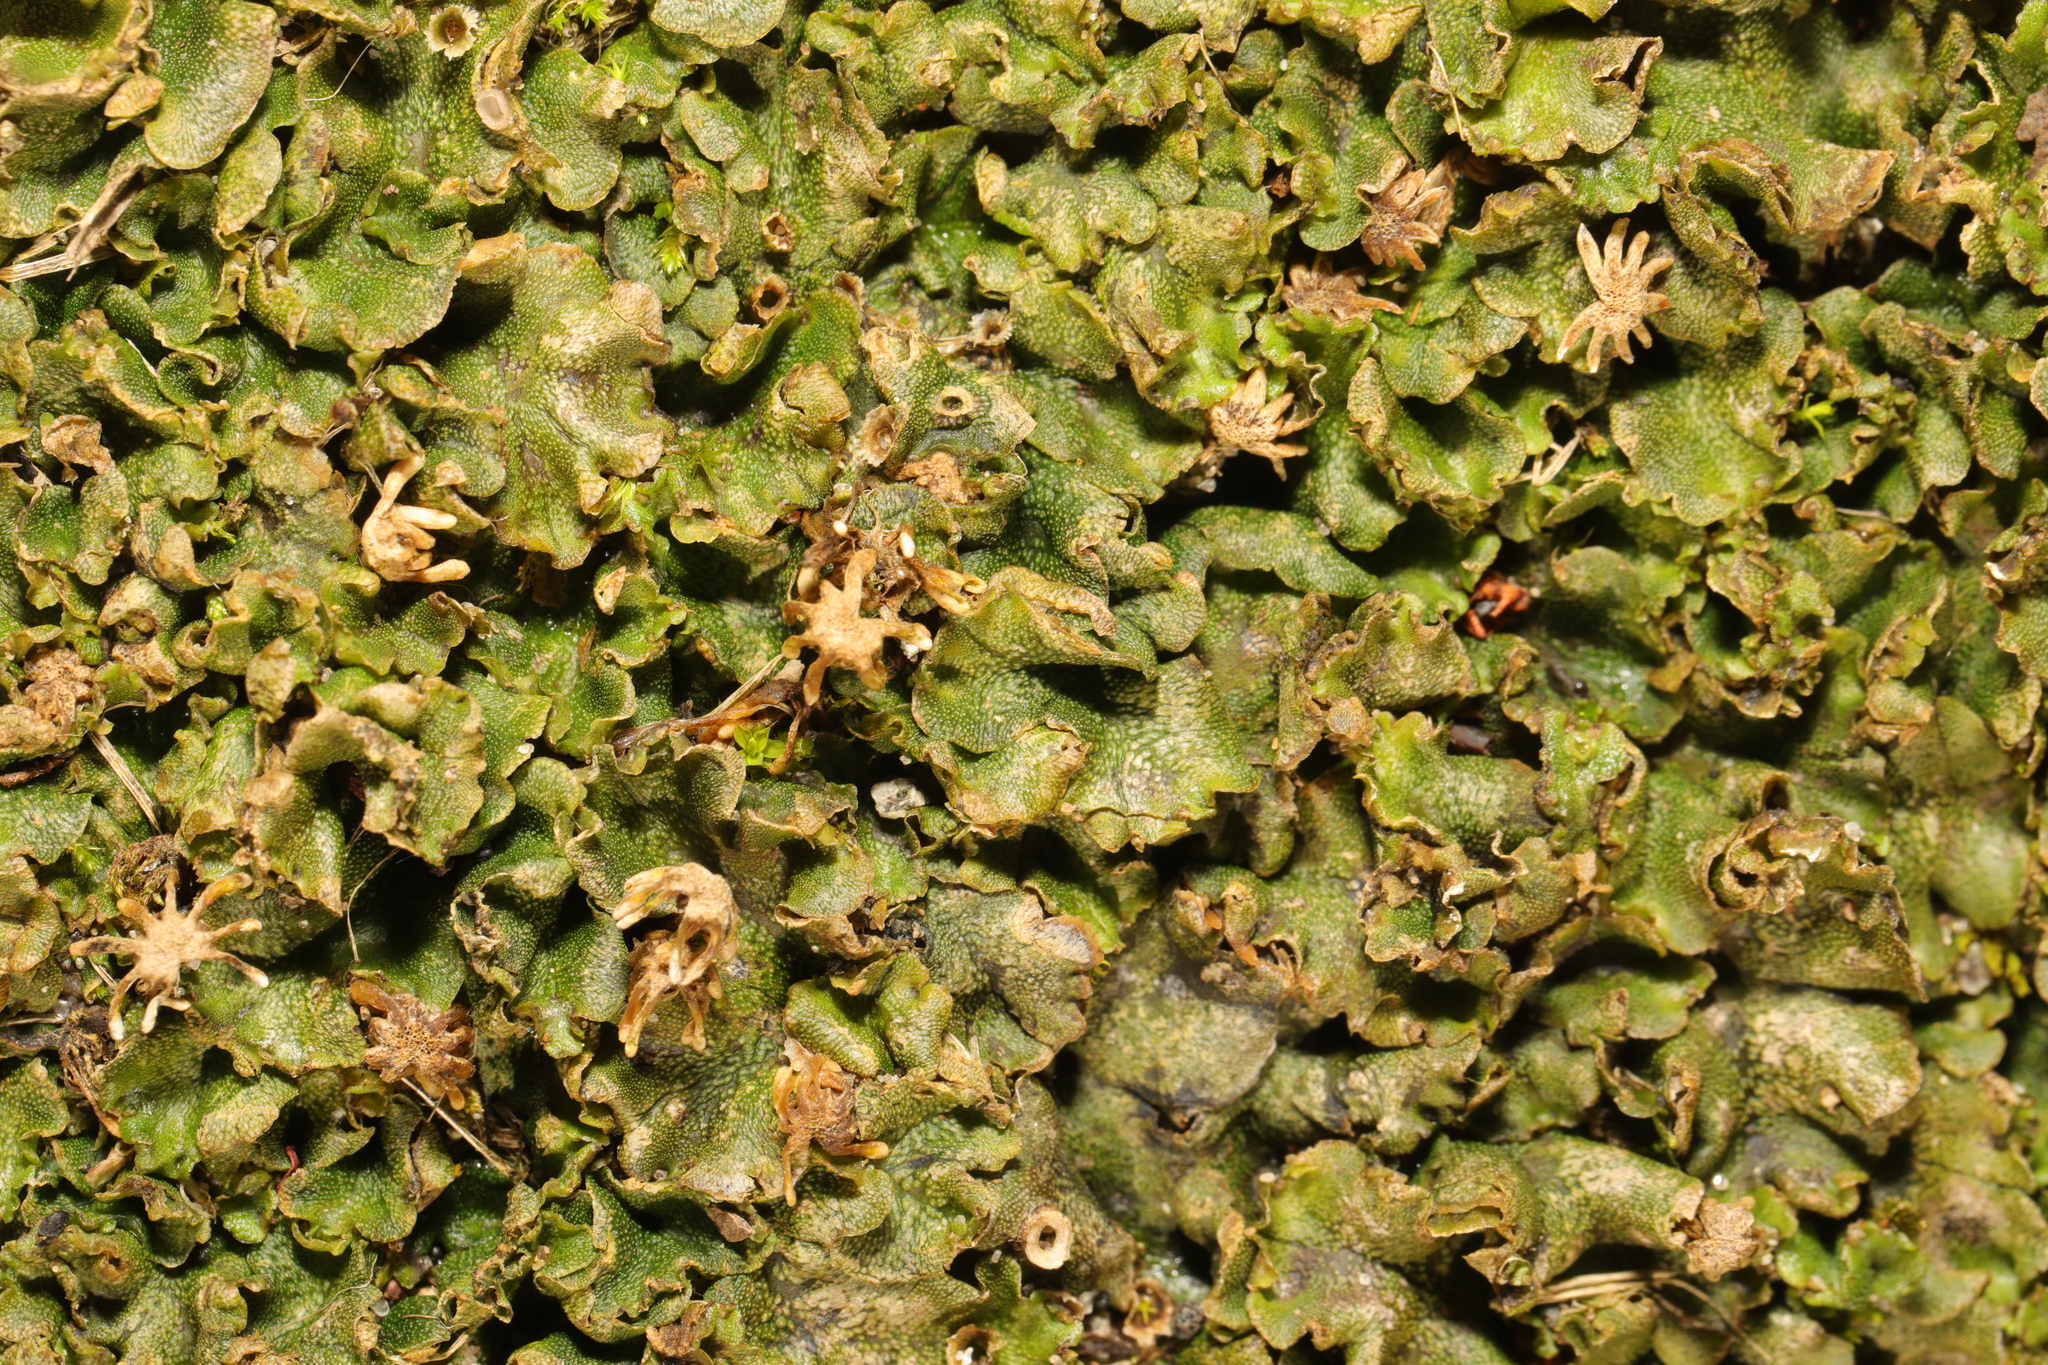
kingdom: Plantae
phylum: Marchantiophyta
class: Marchantiopsida
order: Marchantiales
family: Marchantiaceae
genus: Marchantia
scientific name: Marchantia polymorpha
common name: Common liverwort
